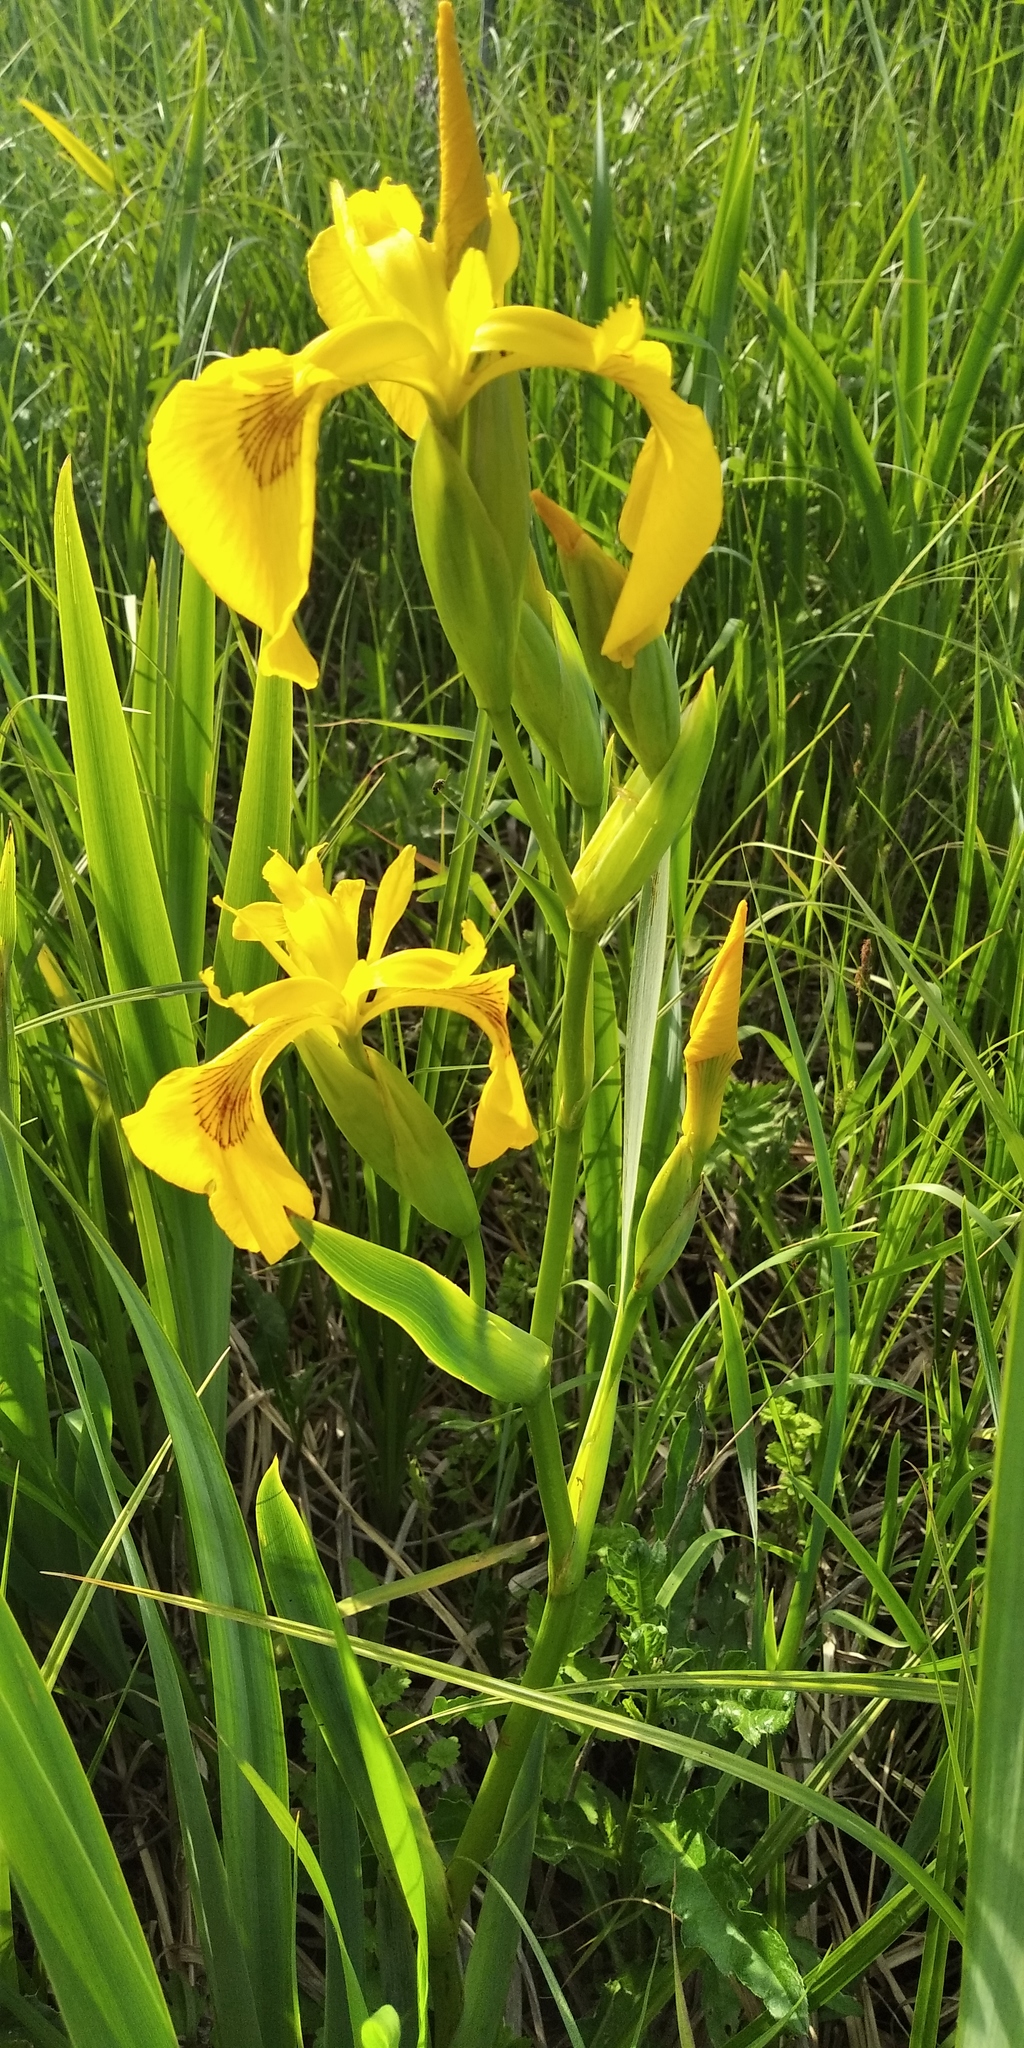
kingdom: Plantae
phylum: Tracheophyta
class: Liliopsida
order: Asparagales
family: Iridaceae
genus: Iris
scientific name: Iris pseudacorus
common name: Yellow flag
